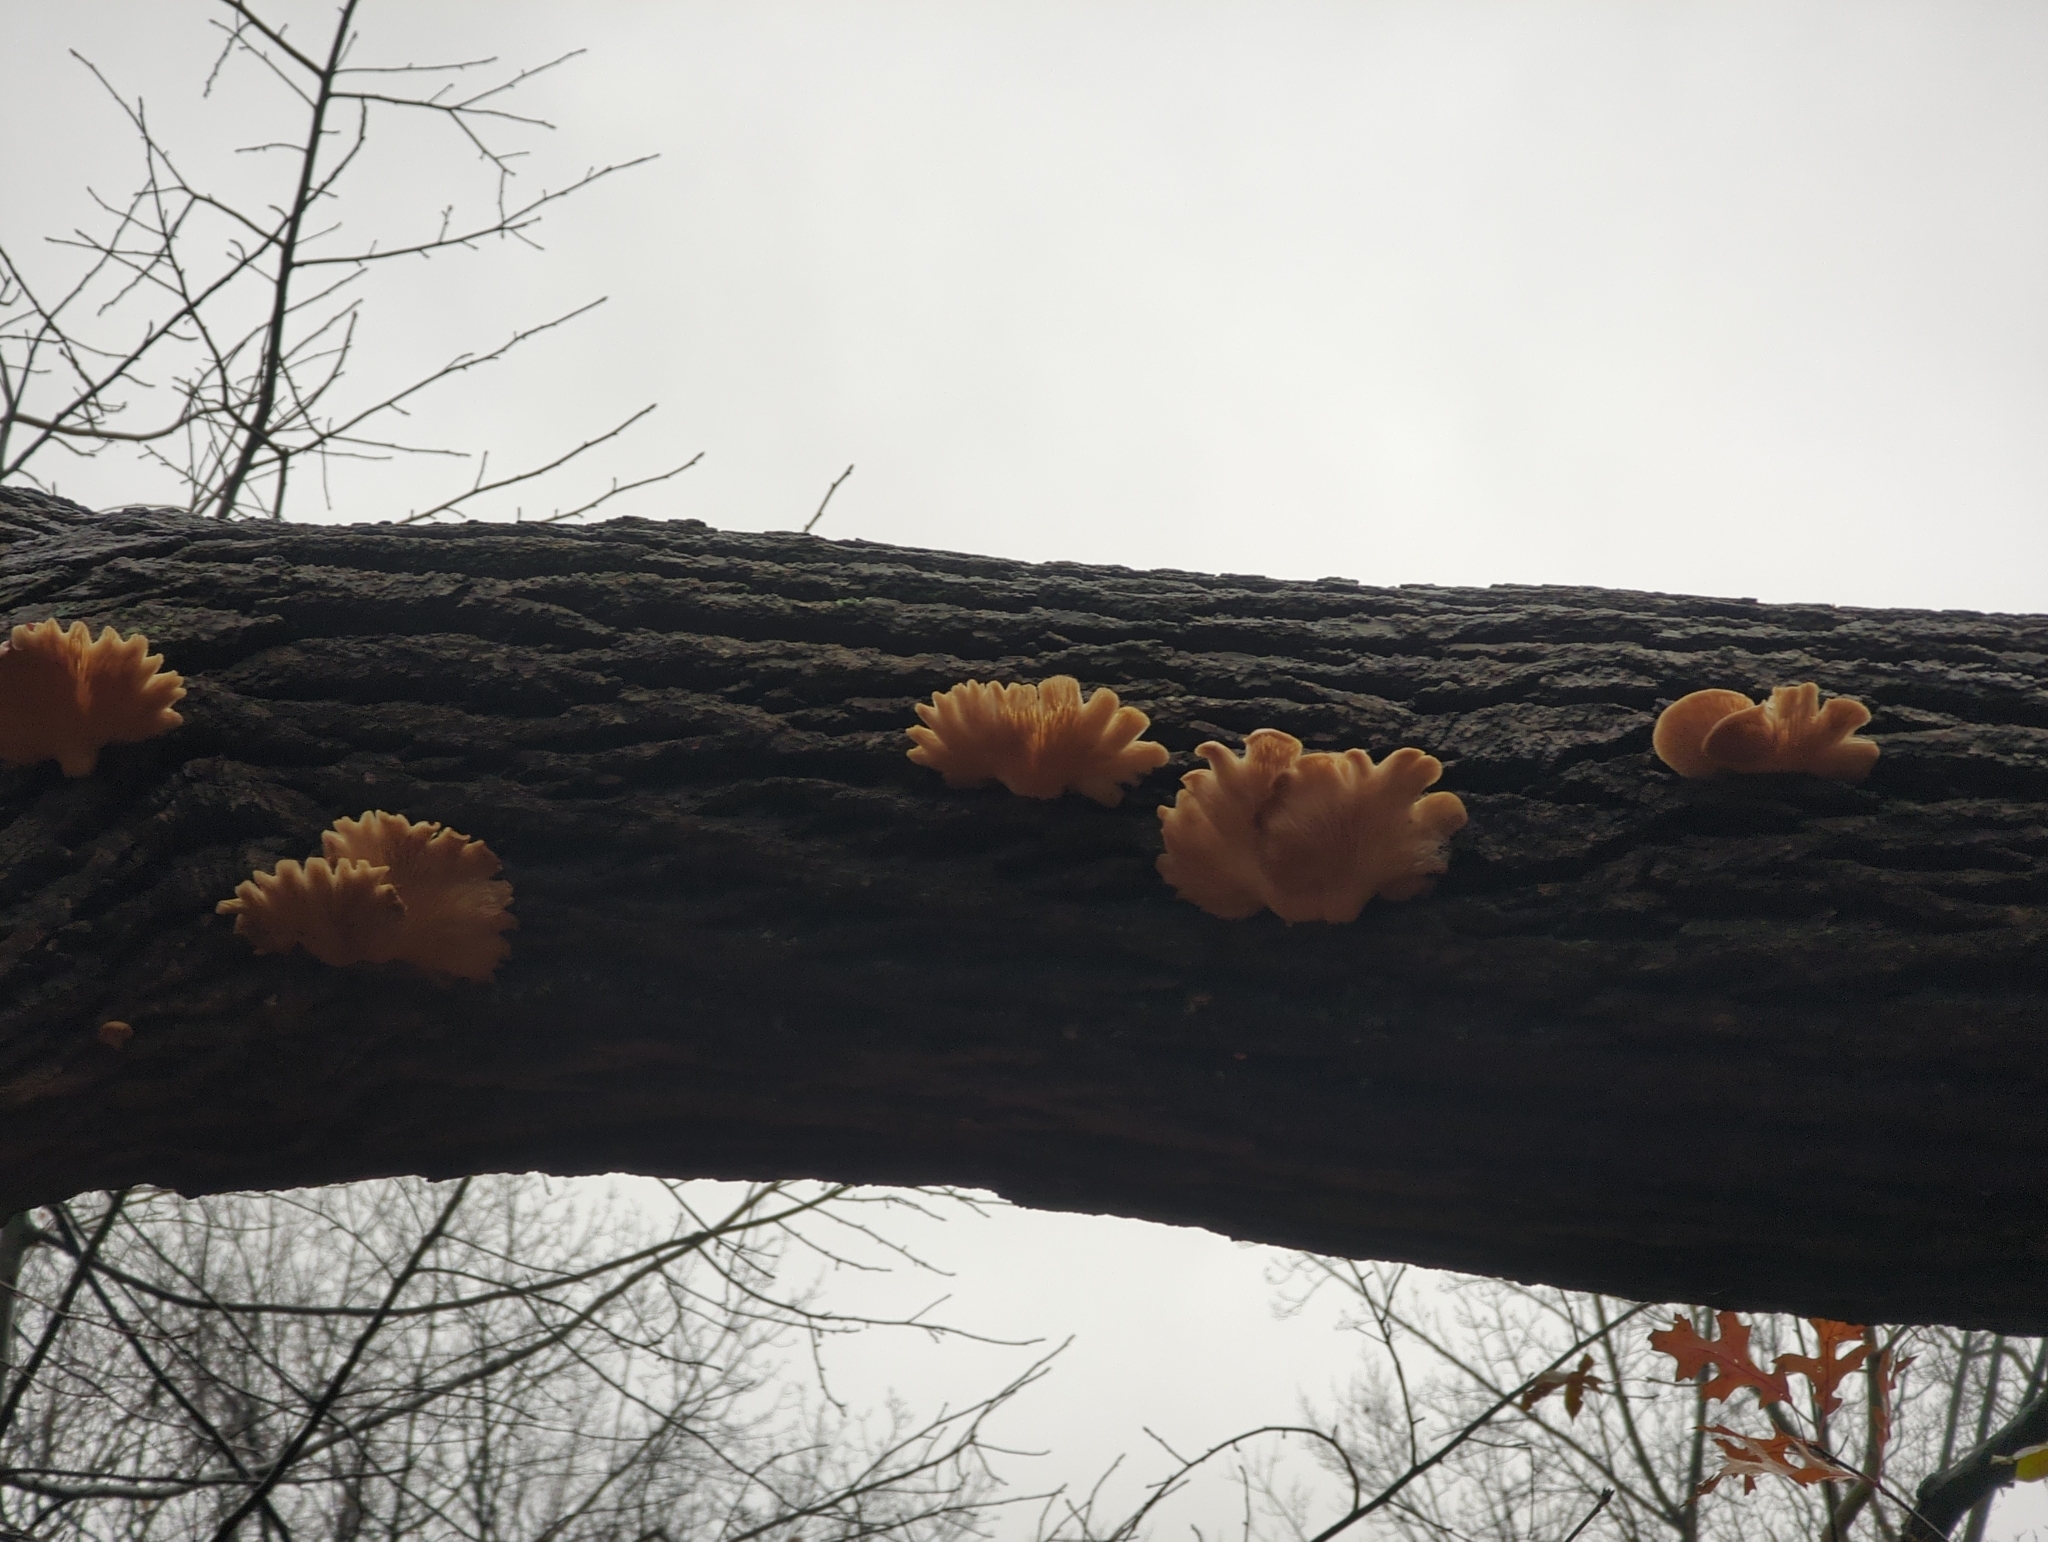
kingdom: Fungi
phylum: Basidiomycota
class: Agaricomycetes
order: Agaricales
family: Pleurotaceae
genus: Pleurotus
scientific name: Pleurotus ostreatus
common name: Oyster mushroom
